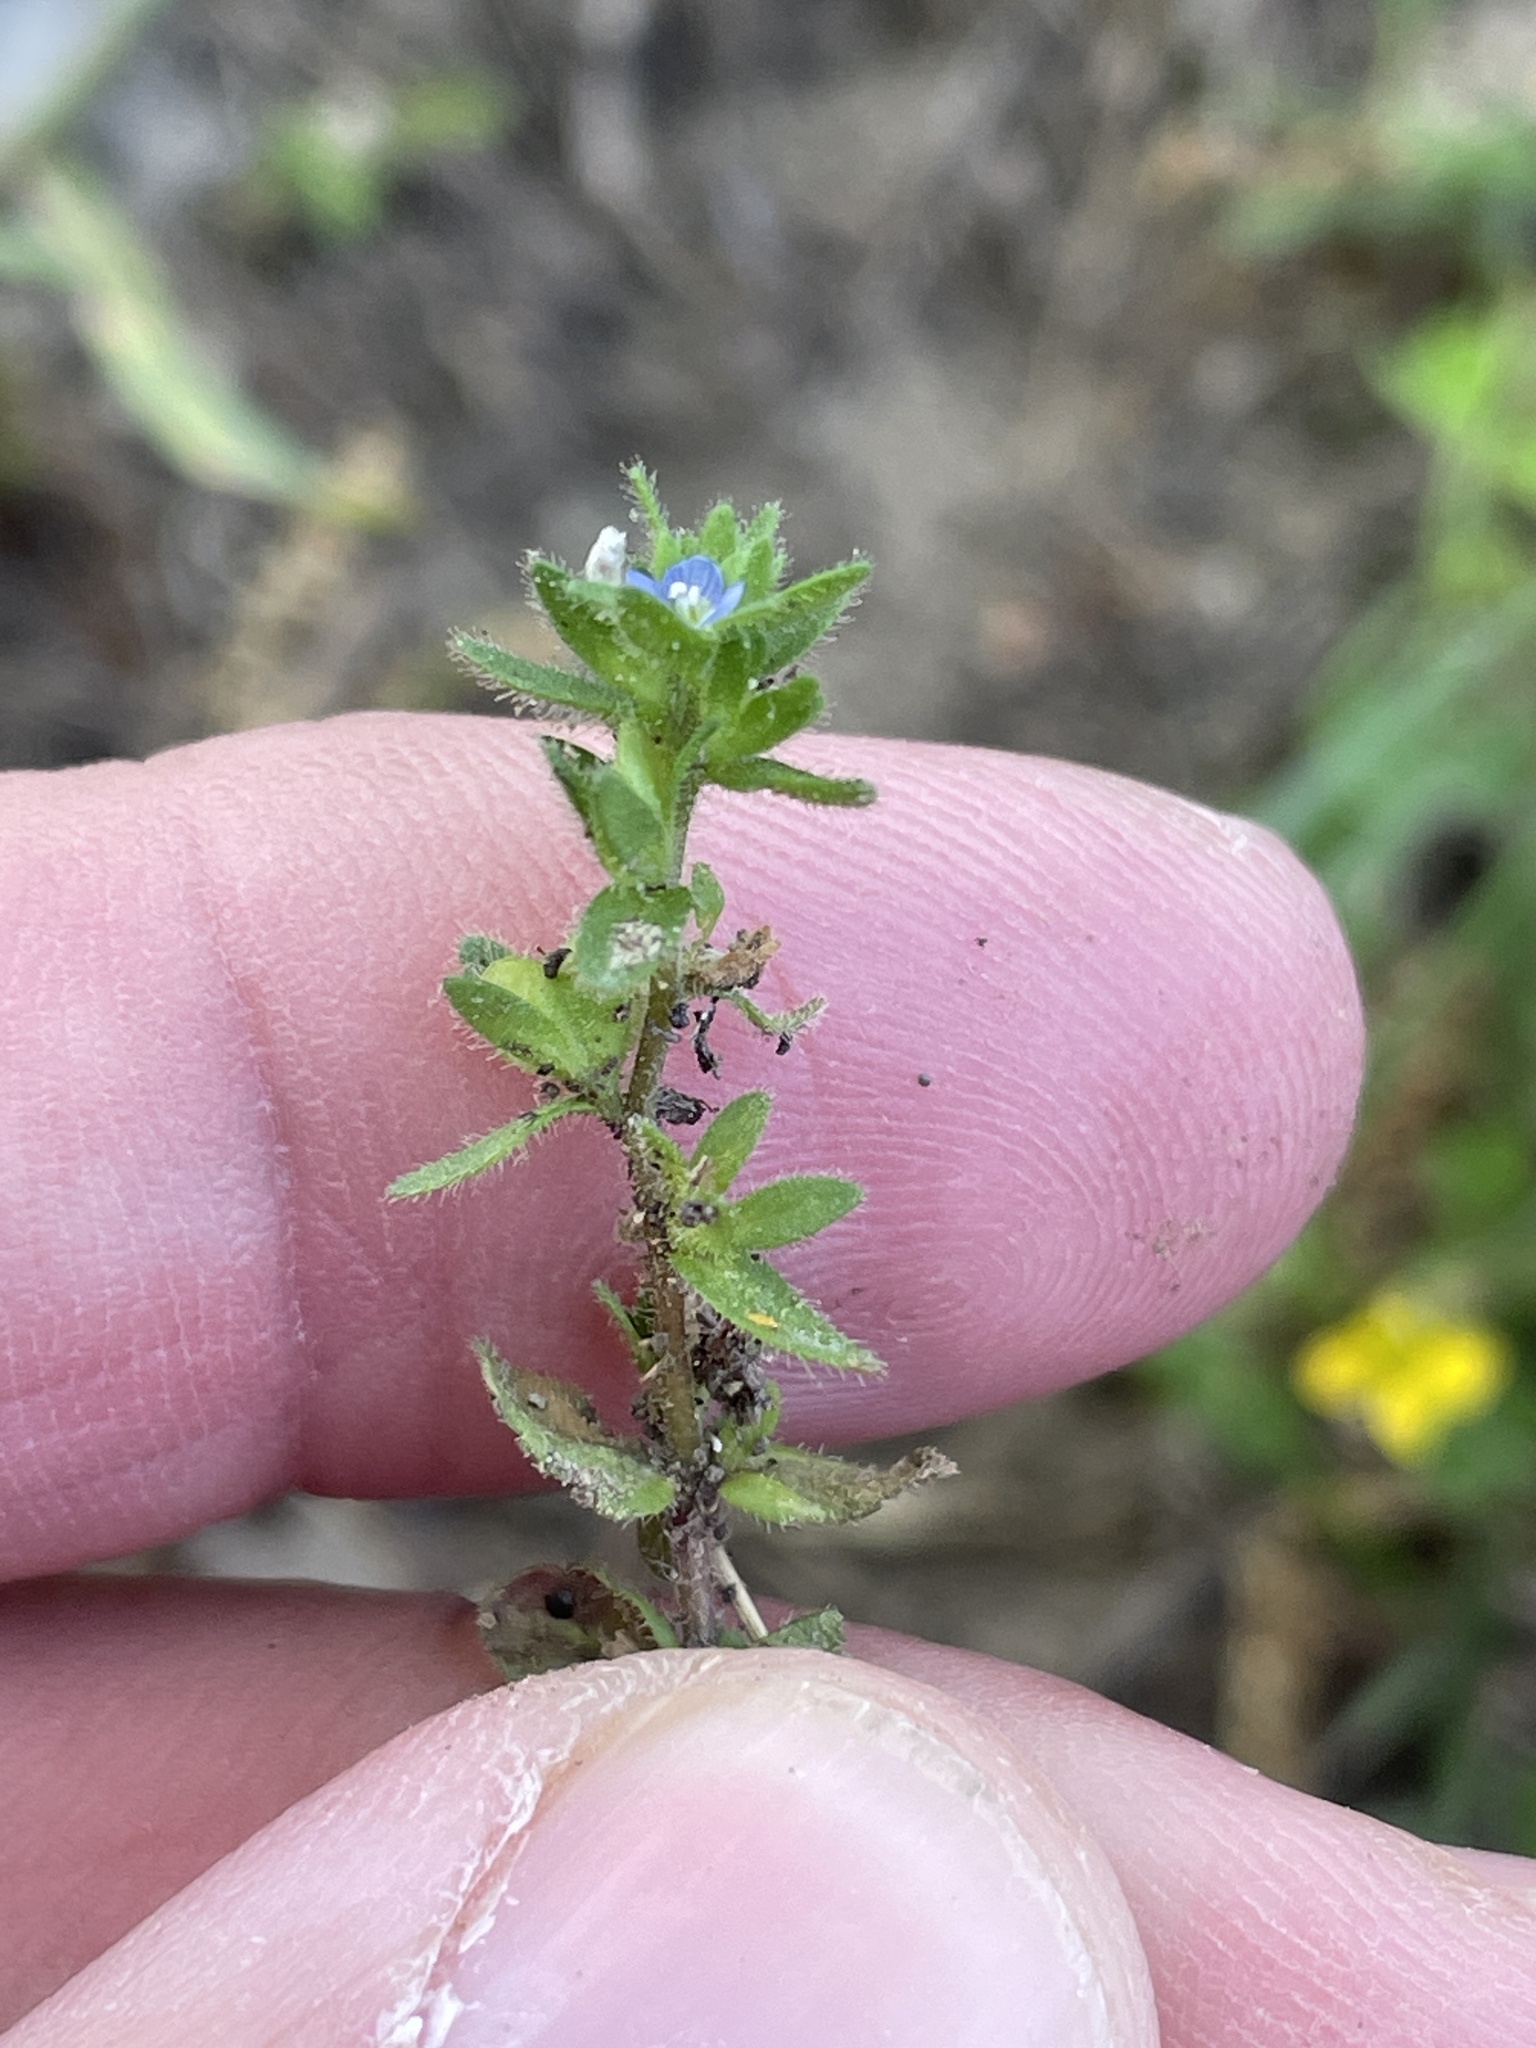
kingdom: Plantae
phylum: Tracheophyta
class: Magnoliopsida
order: Lamiales
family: Plantaginaceae
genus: Veronica
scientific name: Veronica arvensis
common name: Corn speedwell
